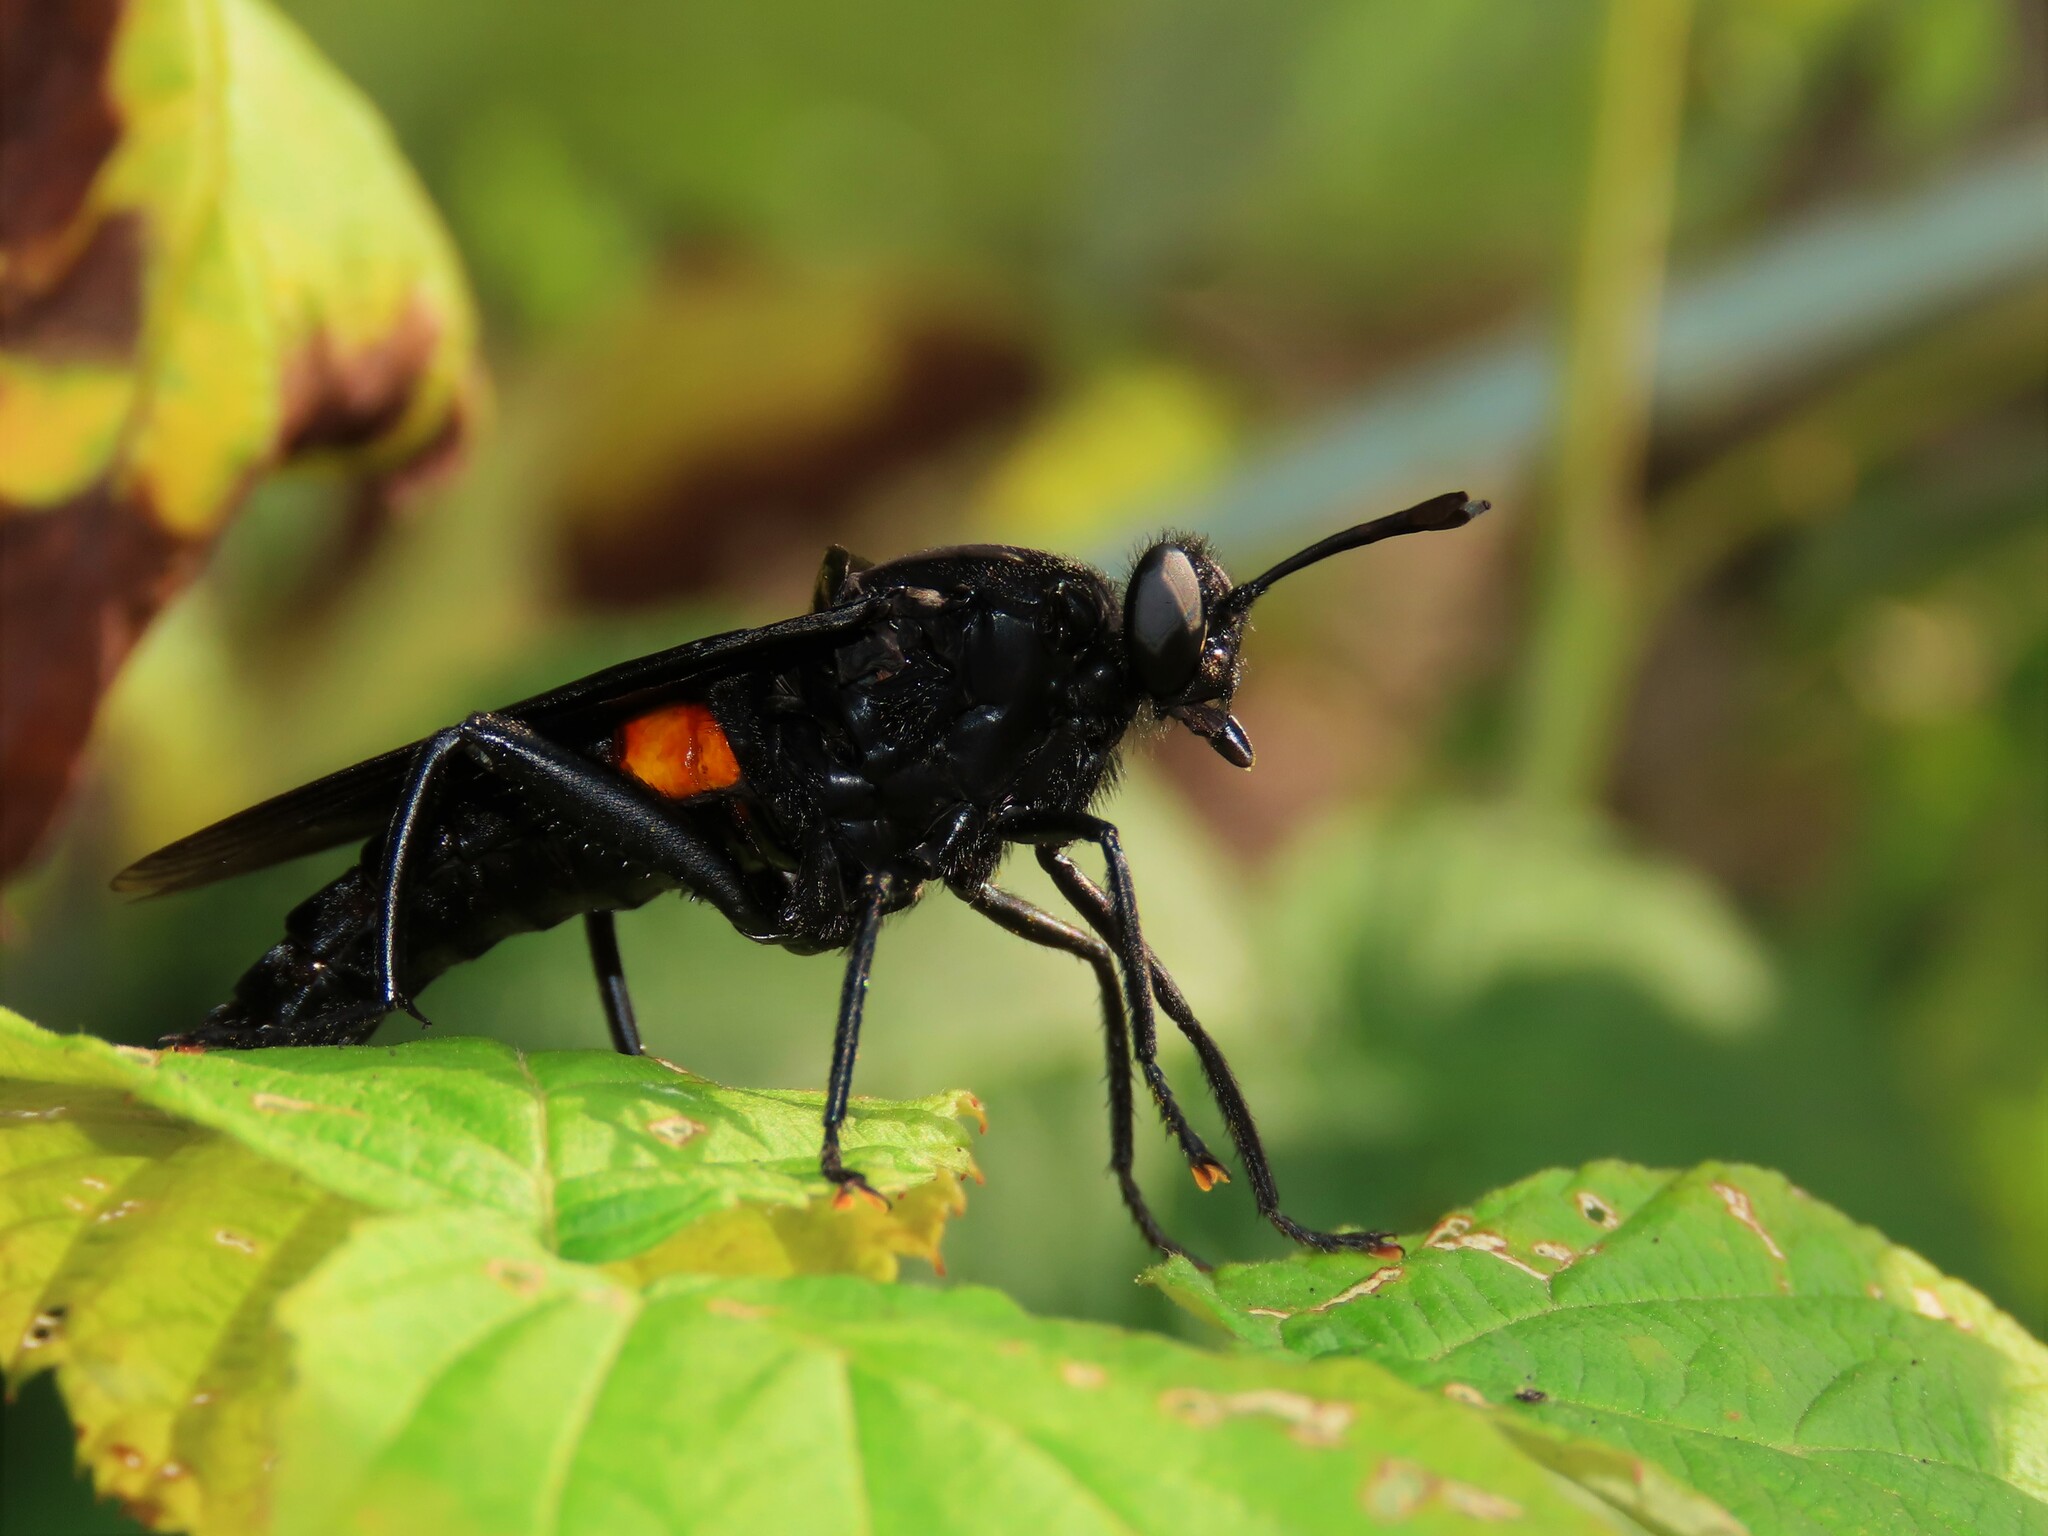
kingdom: Animalia
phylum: Arthropoda
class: Insecta
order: Diptera
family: Mydidae
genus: Mydas
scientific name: Mydas clavatus
